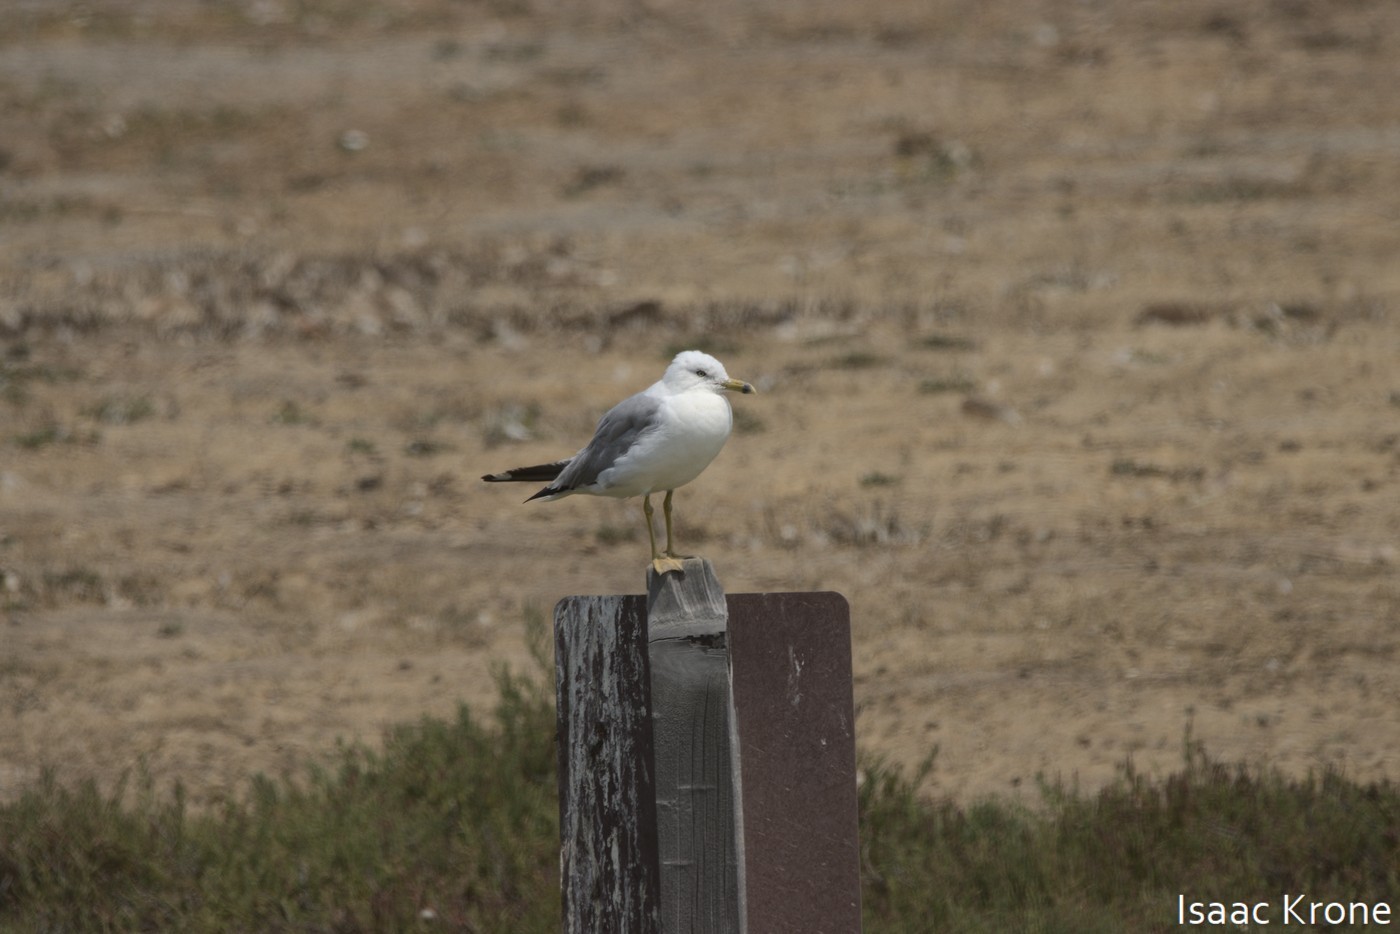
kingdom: Animalia
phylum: Chordata
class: Aves
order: Charadriiformes
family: Laridae
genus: Larus
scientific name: Larus delawarensis
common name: Ring-billed gull
